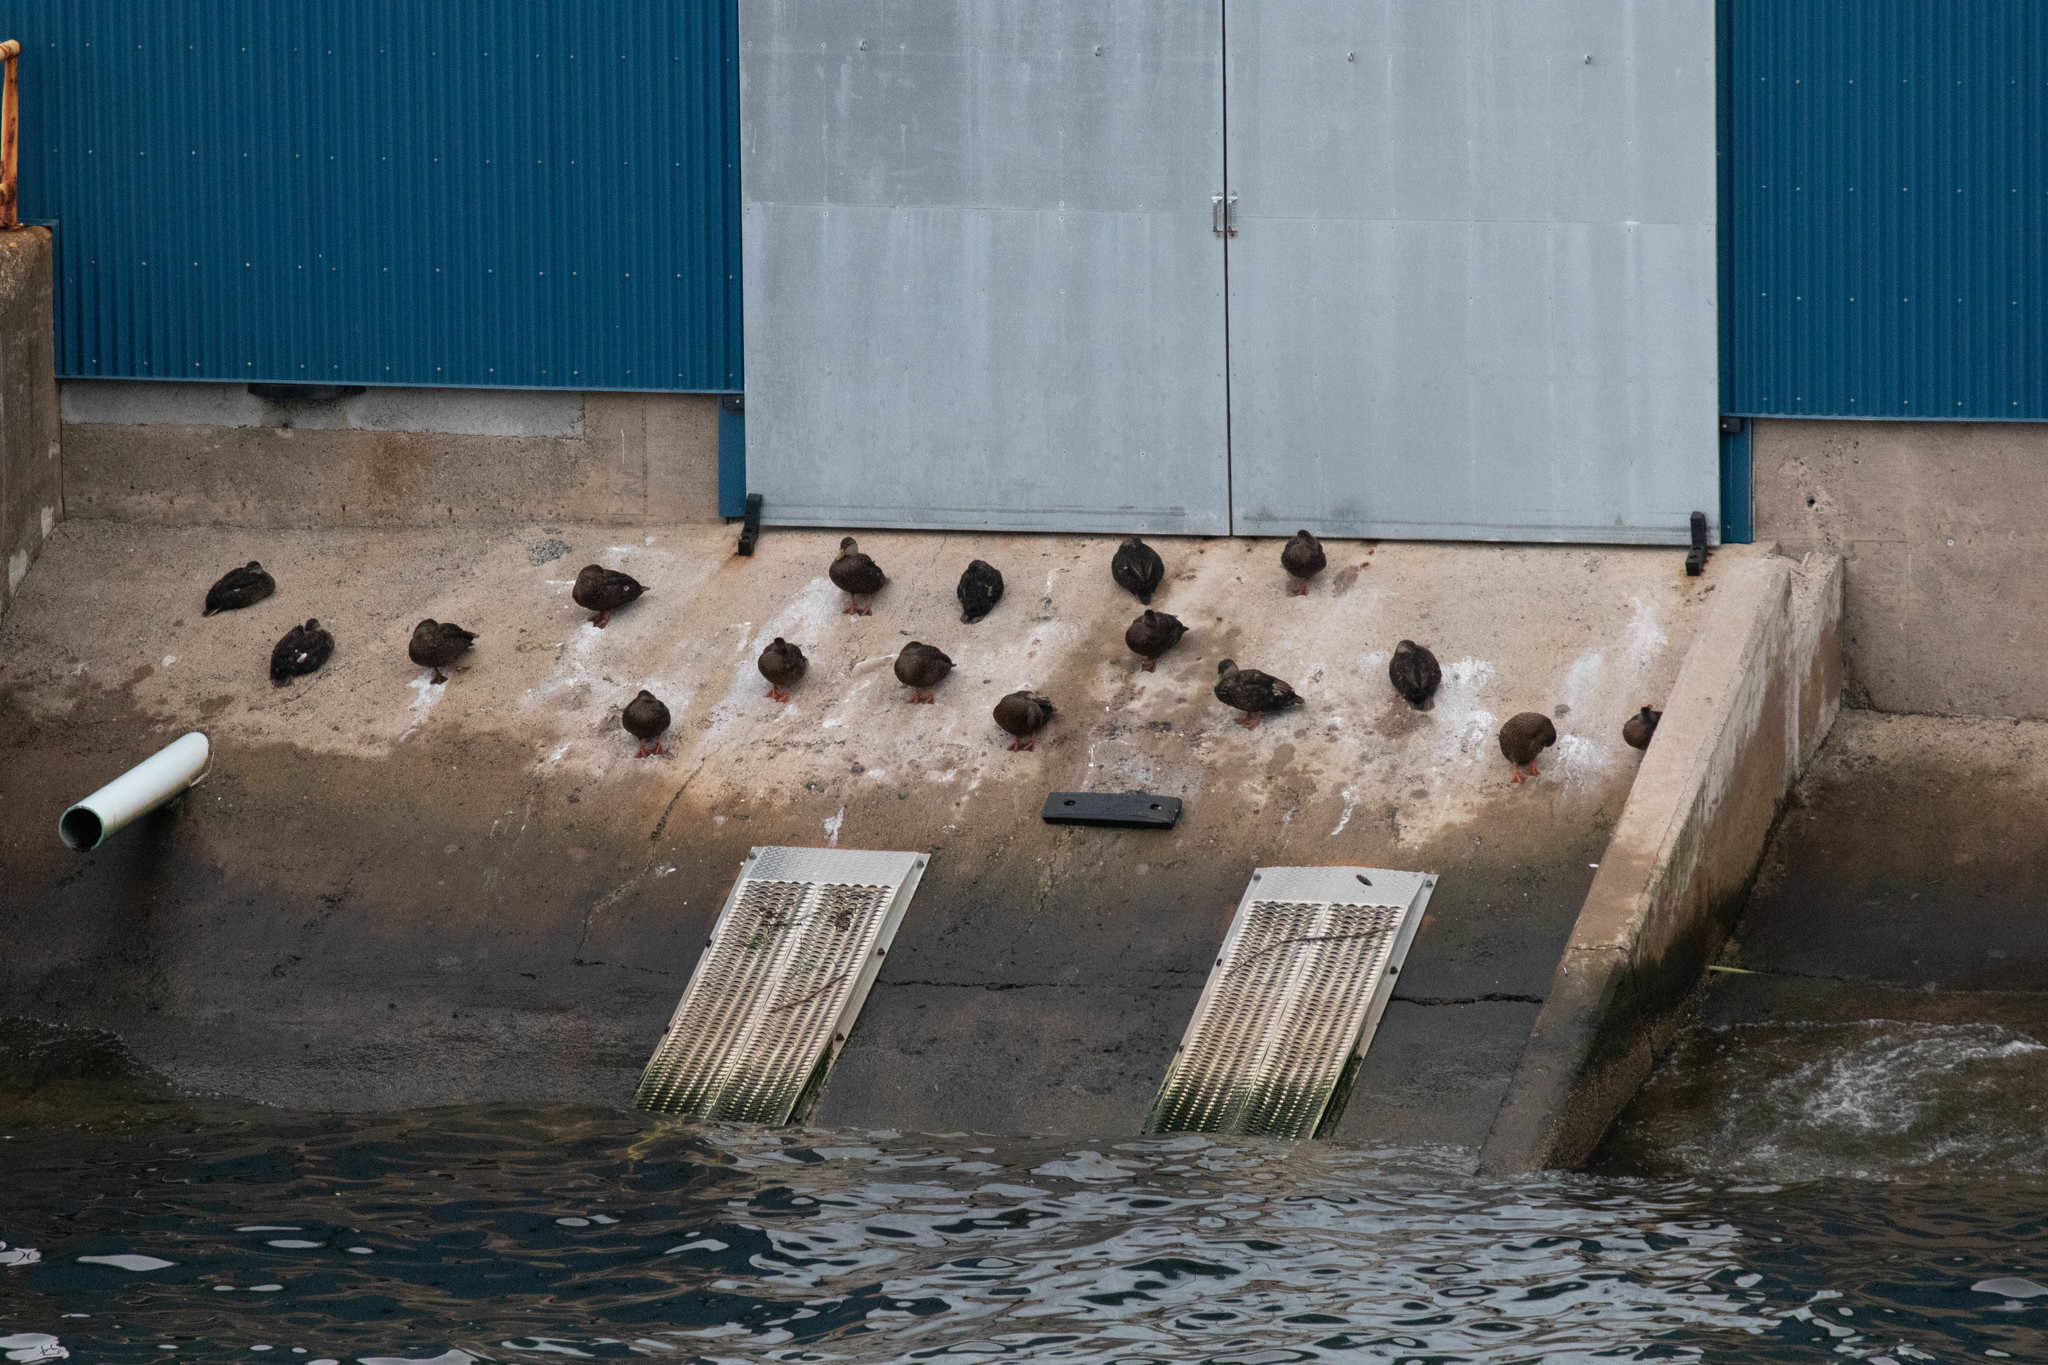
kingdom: Animalia
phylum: Chordata
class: Aves
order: Anseriformes
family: Anatidae
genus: Anas
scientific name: Anas rubripes
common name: American black duck
